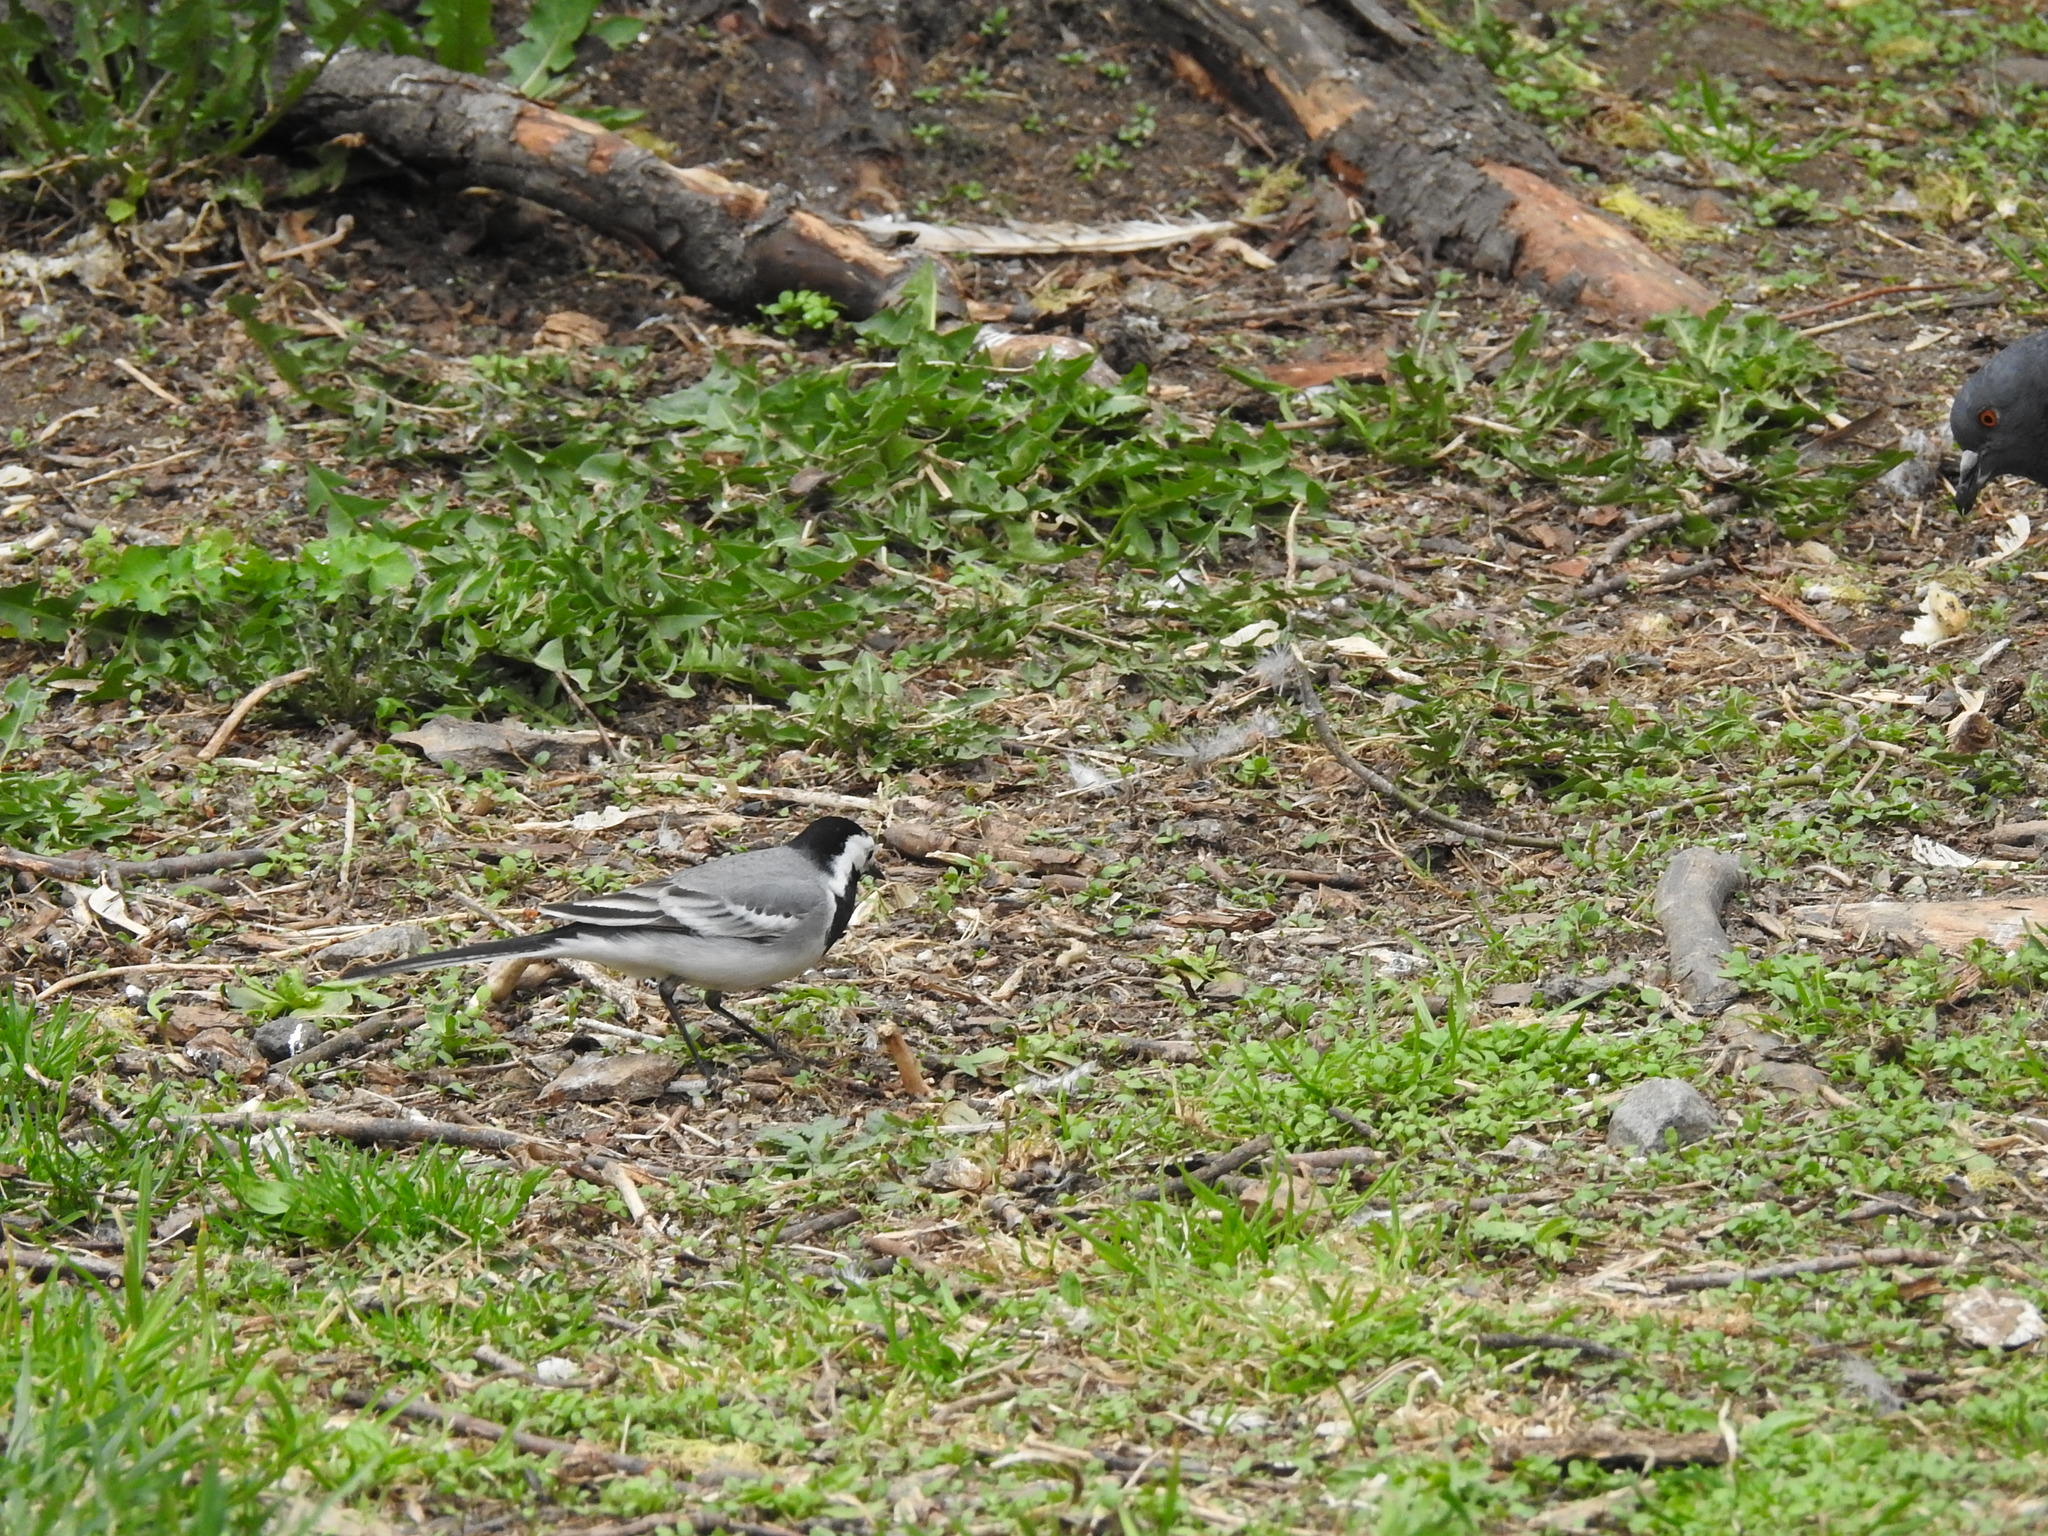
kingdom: Animalia
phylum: Chordata
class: Aves
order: Passeriformes
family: Motacillidae
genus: Motacilla
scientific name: Motacilla alba
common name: White wagtail
